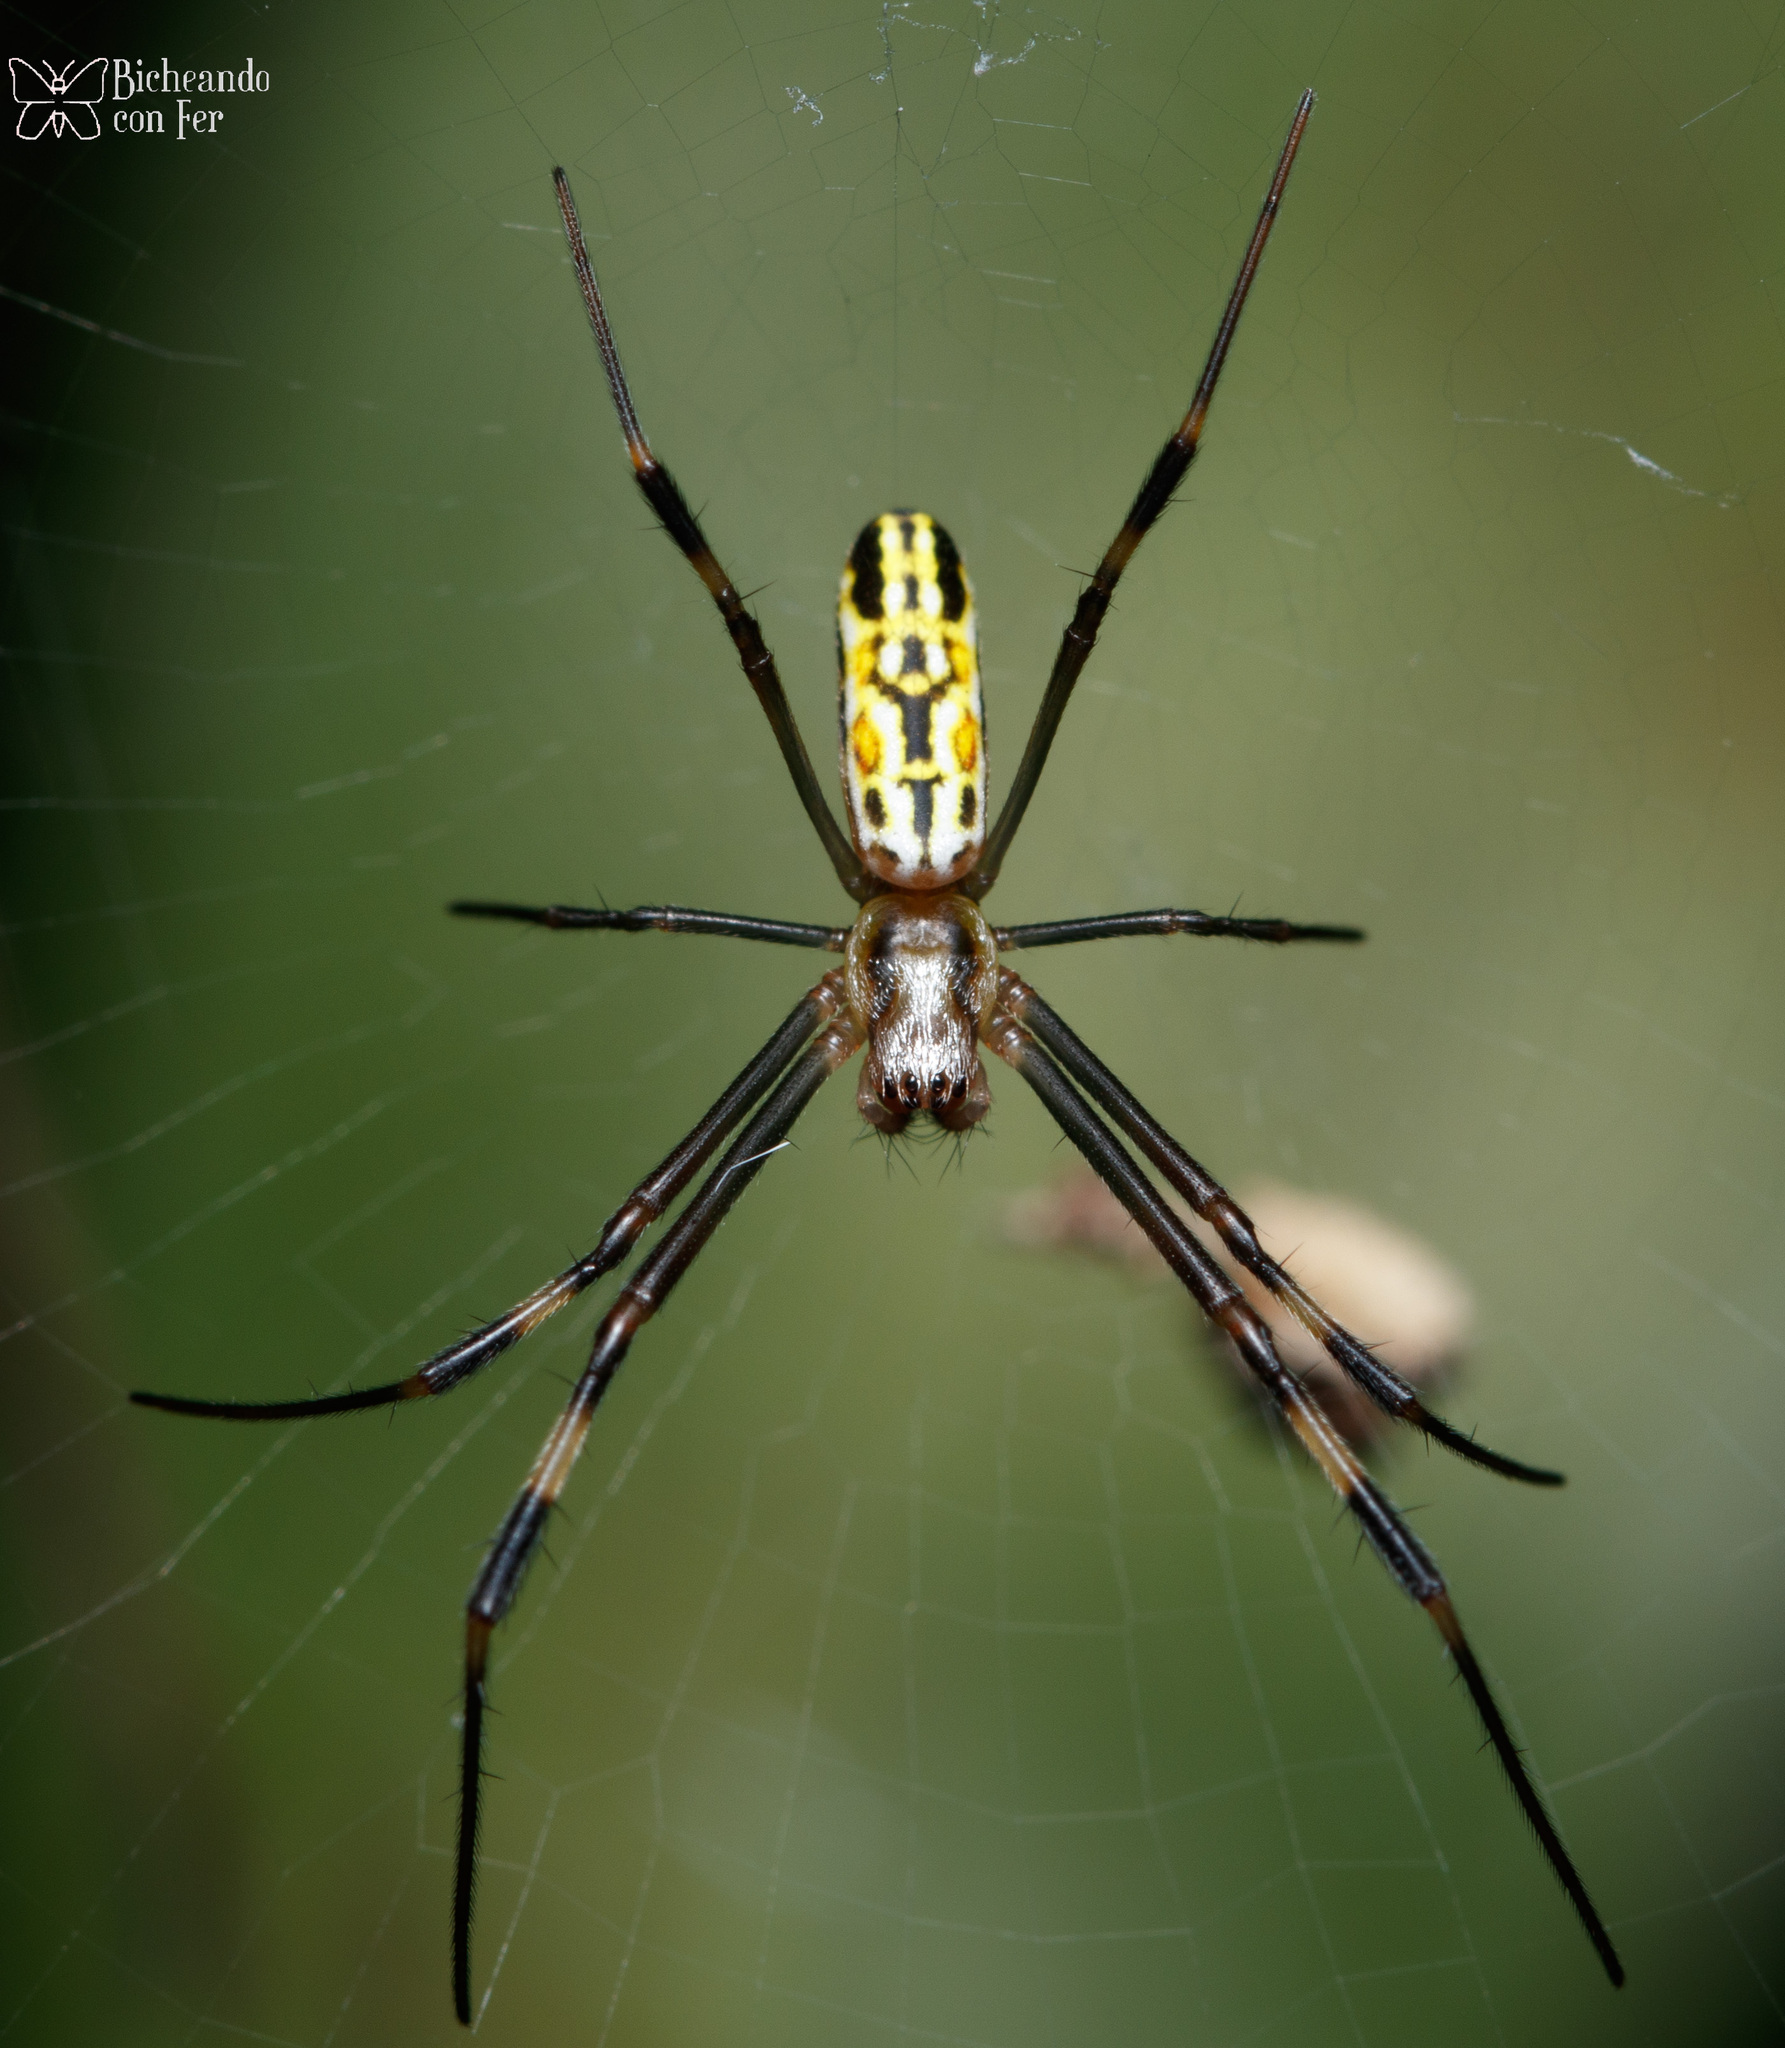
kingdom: Animalia
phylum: Arthropoda
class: Arachnida
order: Araneae
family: Araneidae
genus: Trichonephila
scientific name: Trichonephila clavipes
